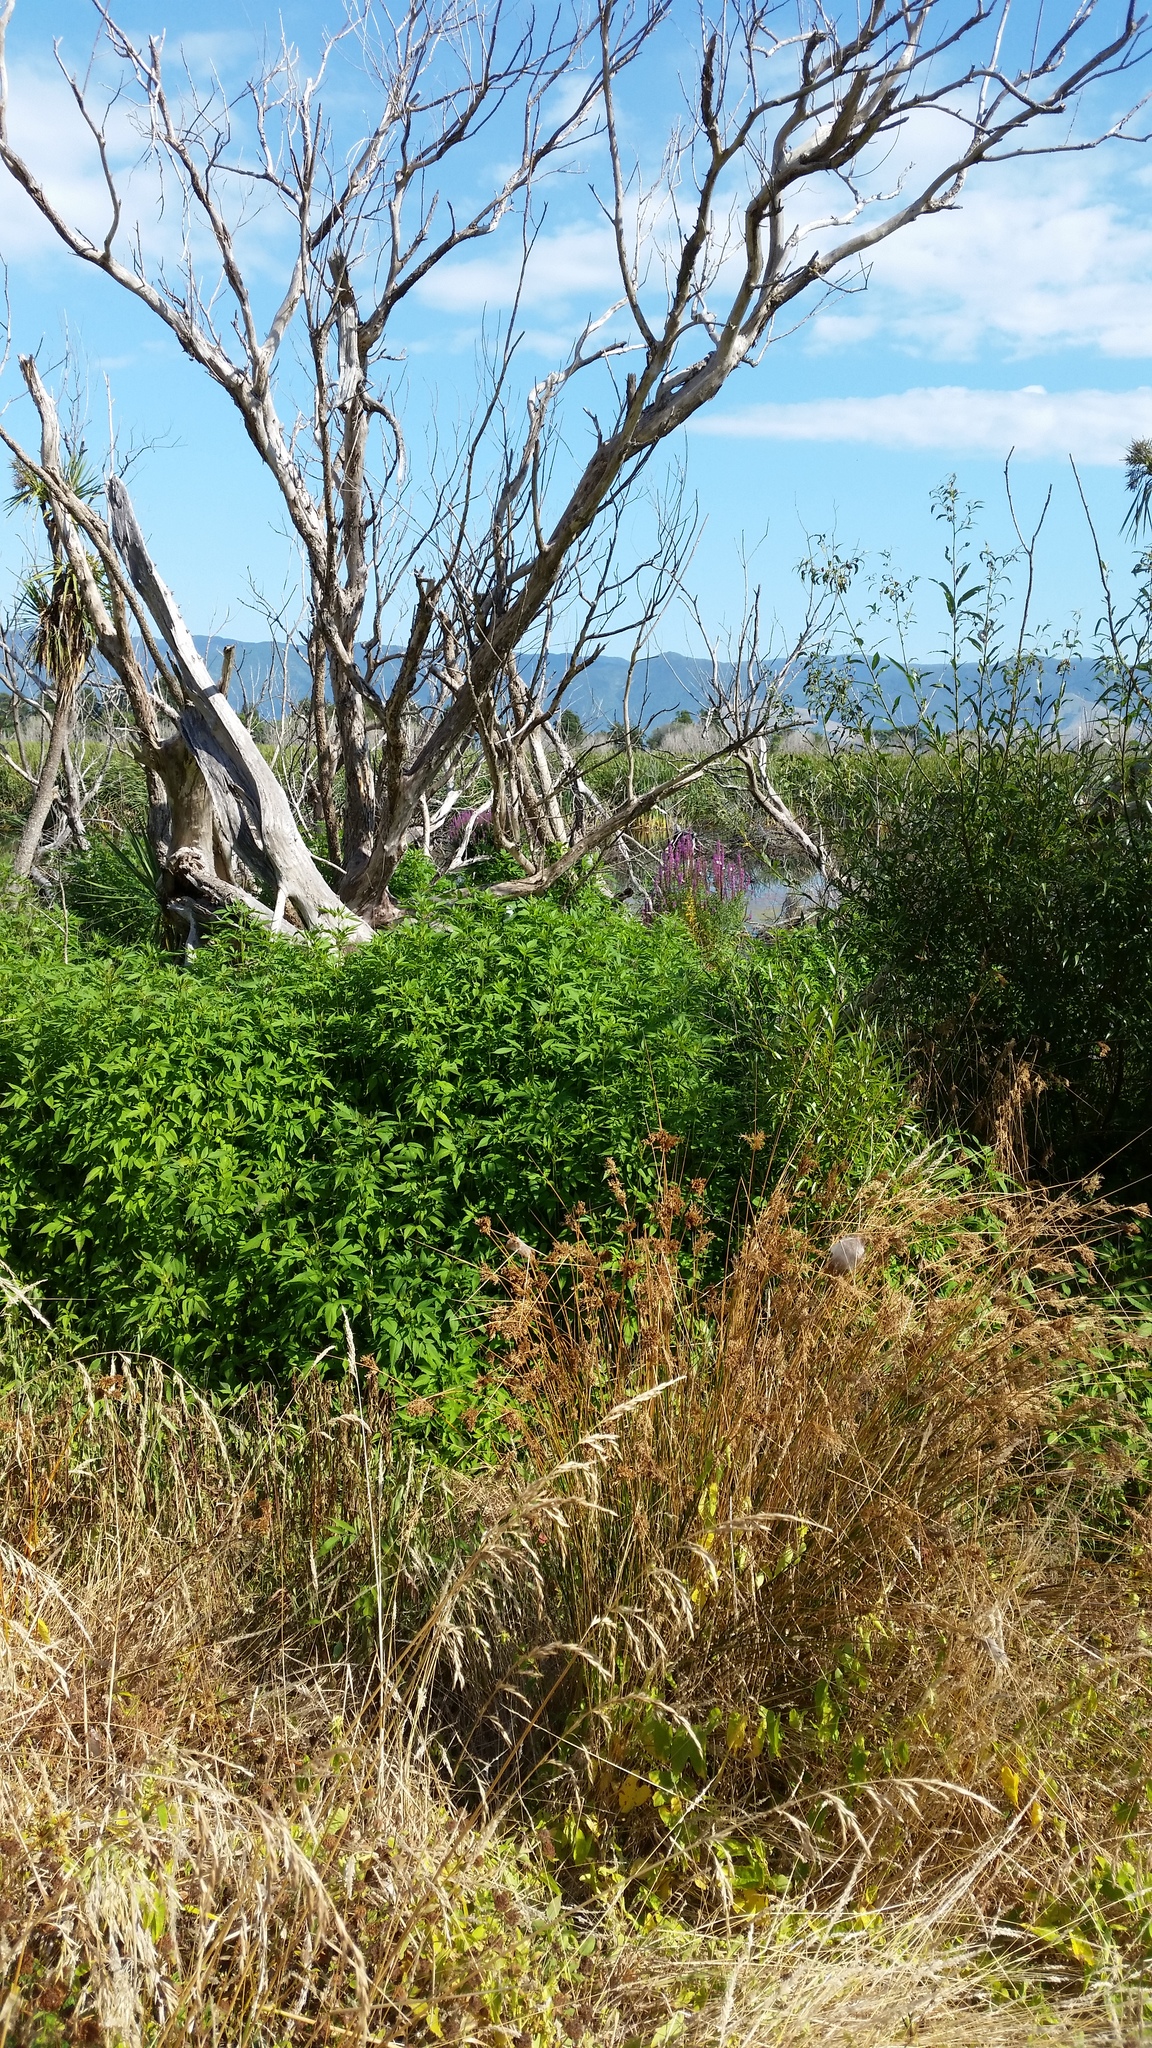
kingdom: Plantae
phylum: Tracheophyta
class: Magnoliopsida
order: Myrtales
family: Lythraceae
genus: Lythrum
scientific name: Lythrum salicaria
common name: Purple loosestrife
